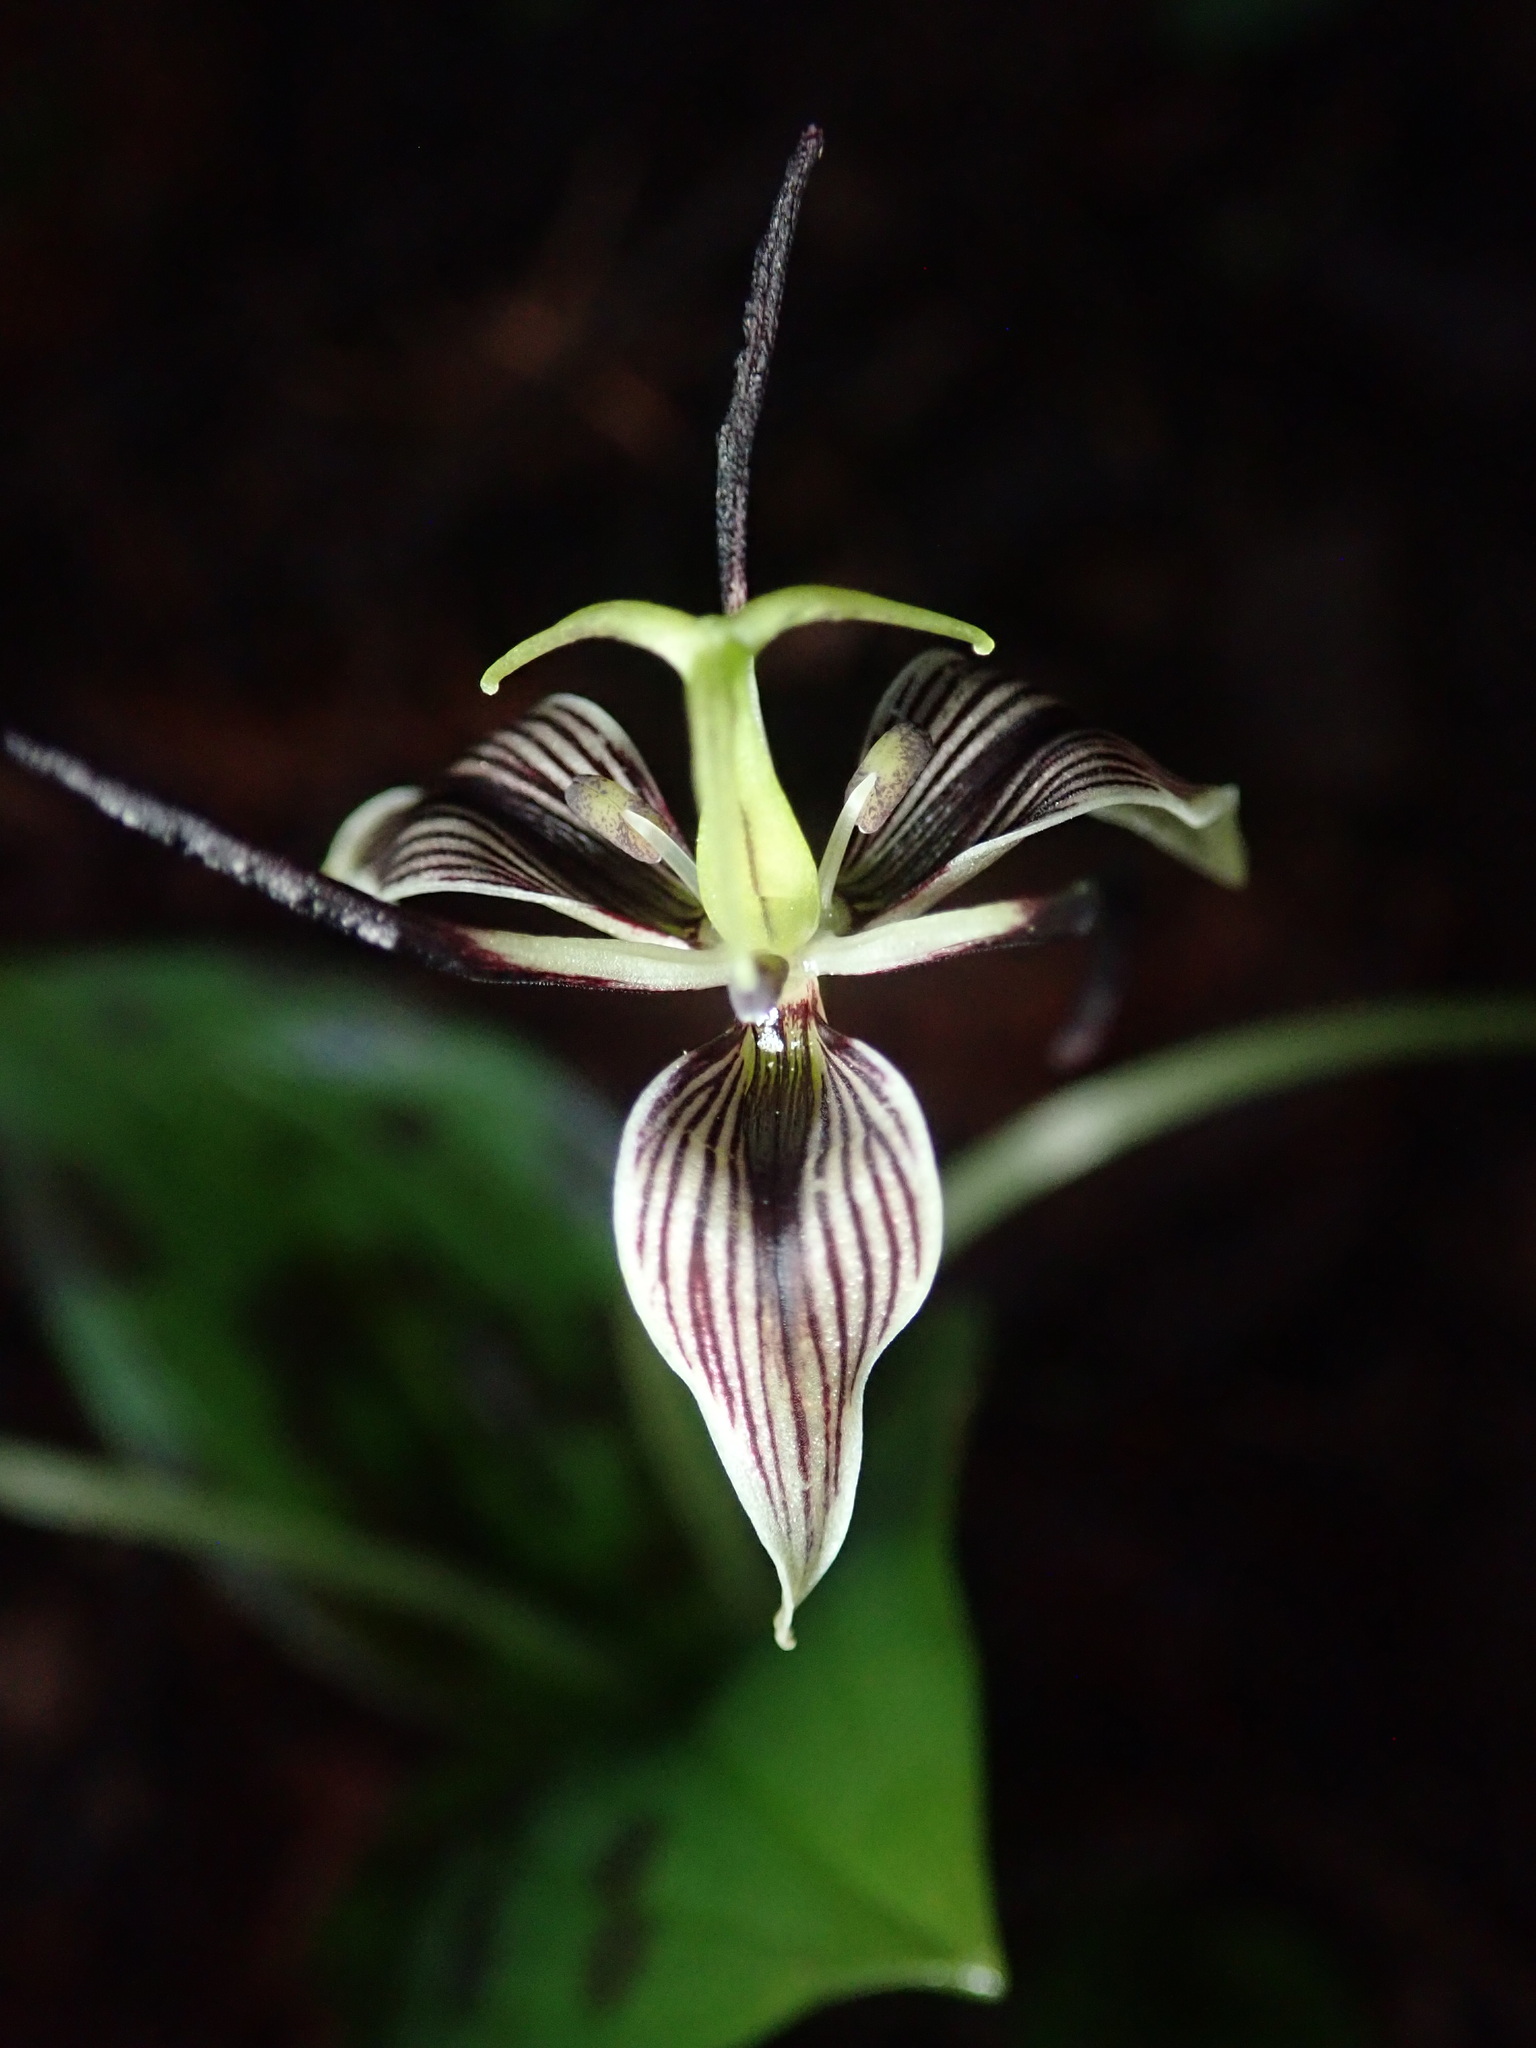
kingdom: Plantae
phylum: Tracheophyta
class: Liliopsida
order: Liliales
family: Liliaceae
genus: Scoliopus
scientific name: Scoliopus bigelovii
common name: Foetid adder's-tongue
